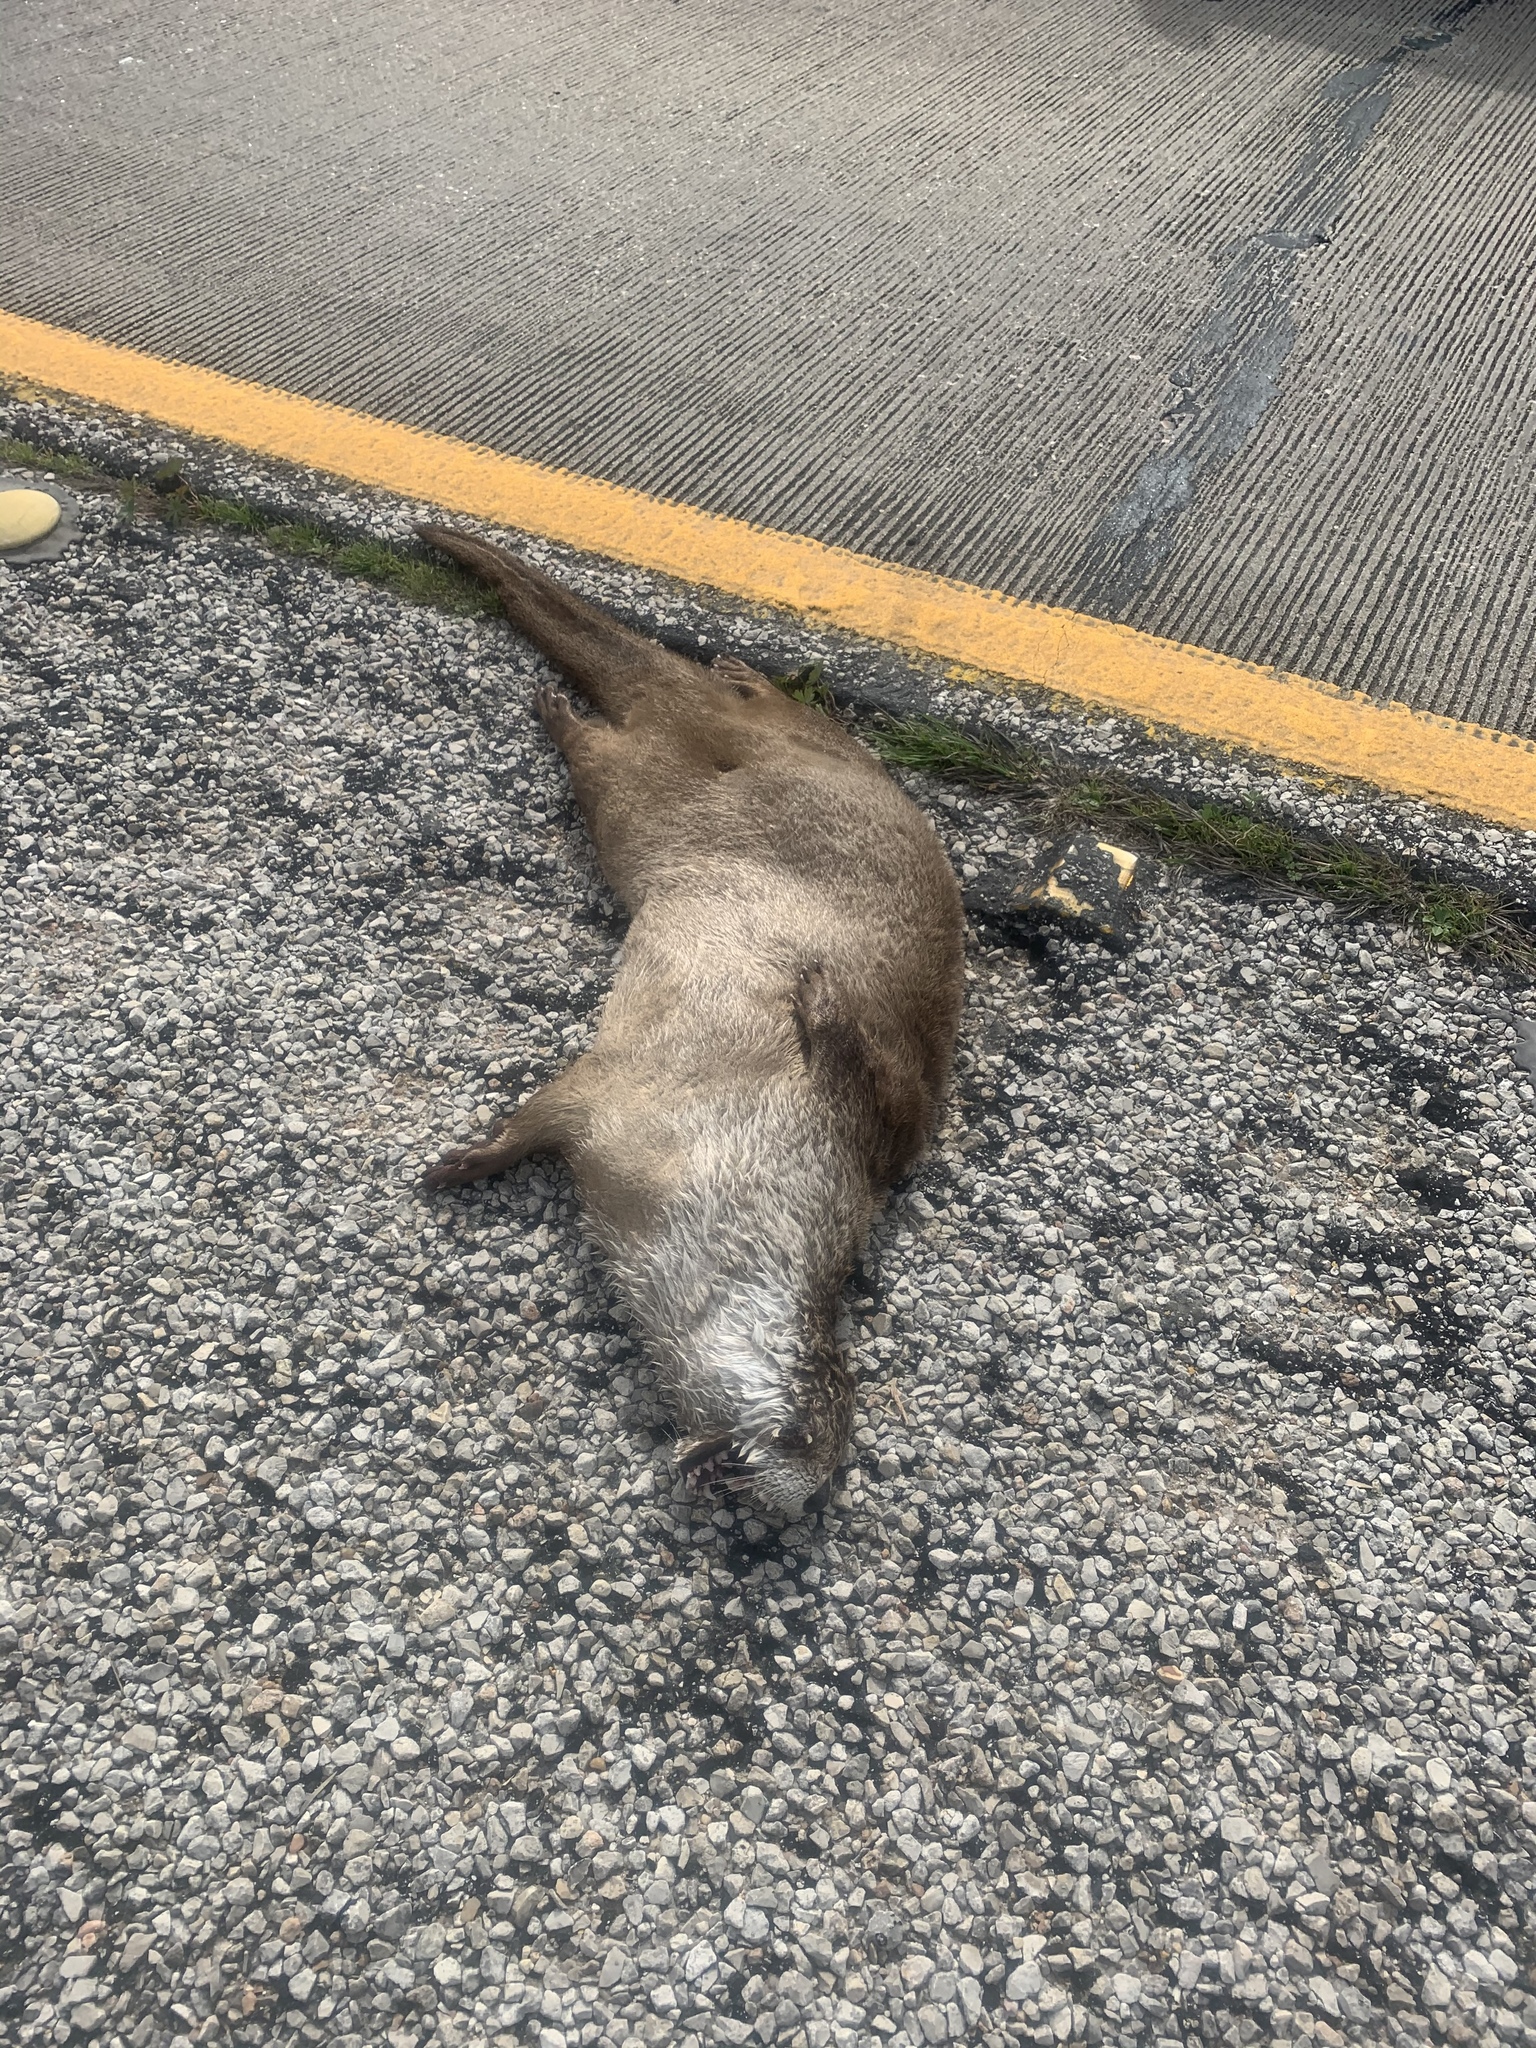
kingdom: Animalia
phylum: Chordata
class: Mammalia
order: Carnivora
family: Mustelidae
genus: Lontra
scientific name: Lontra canadensis
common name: North american river otter
